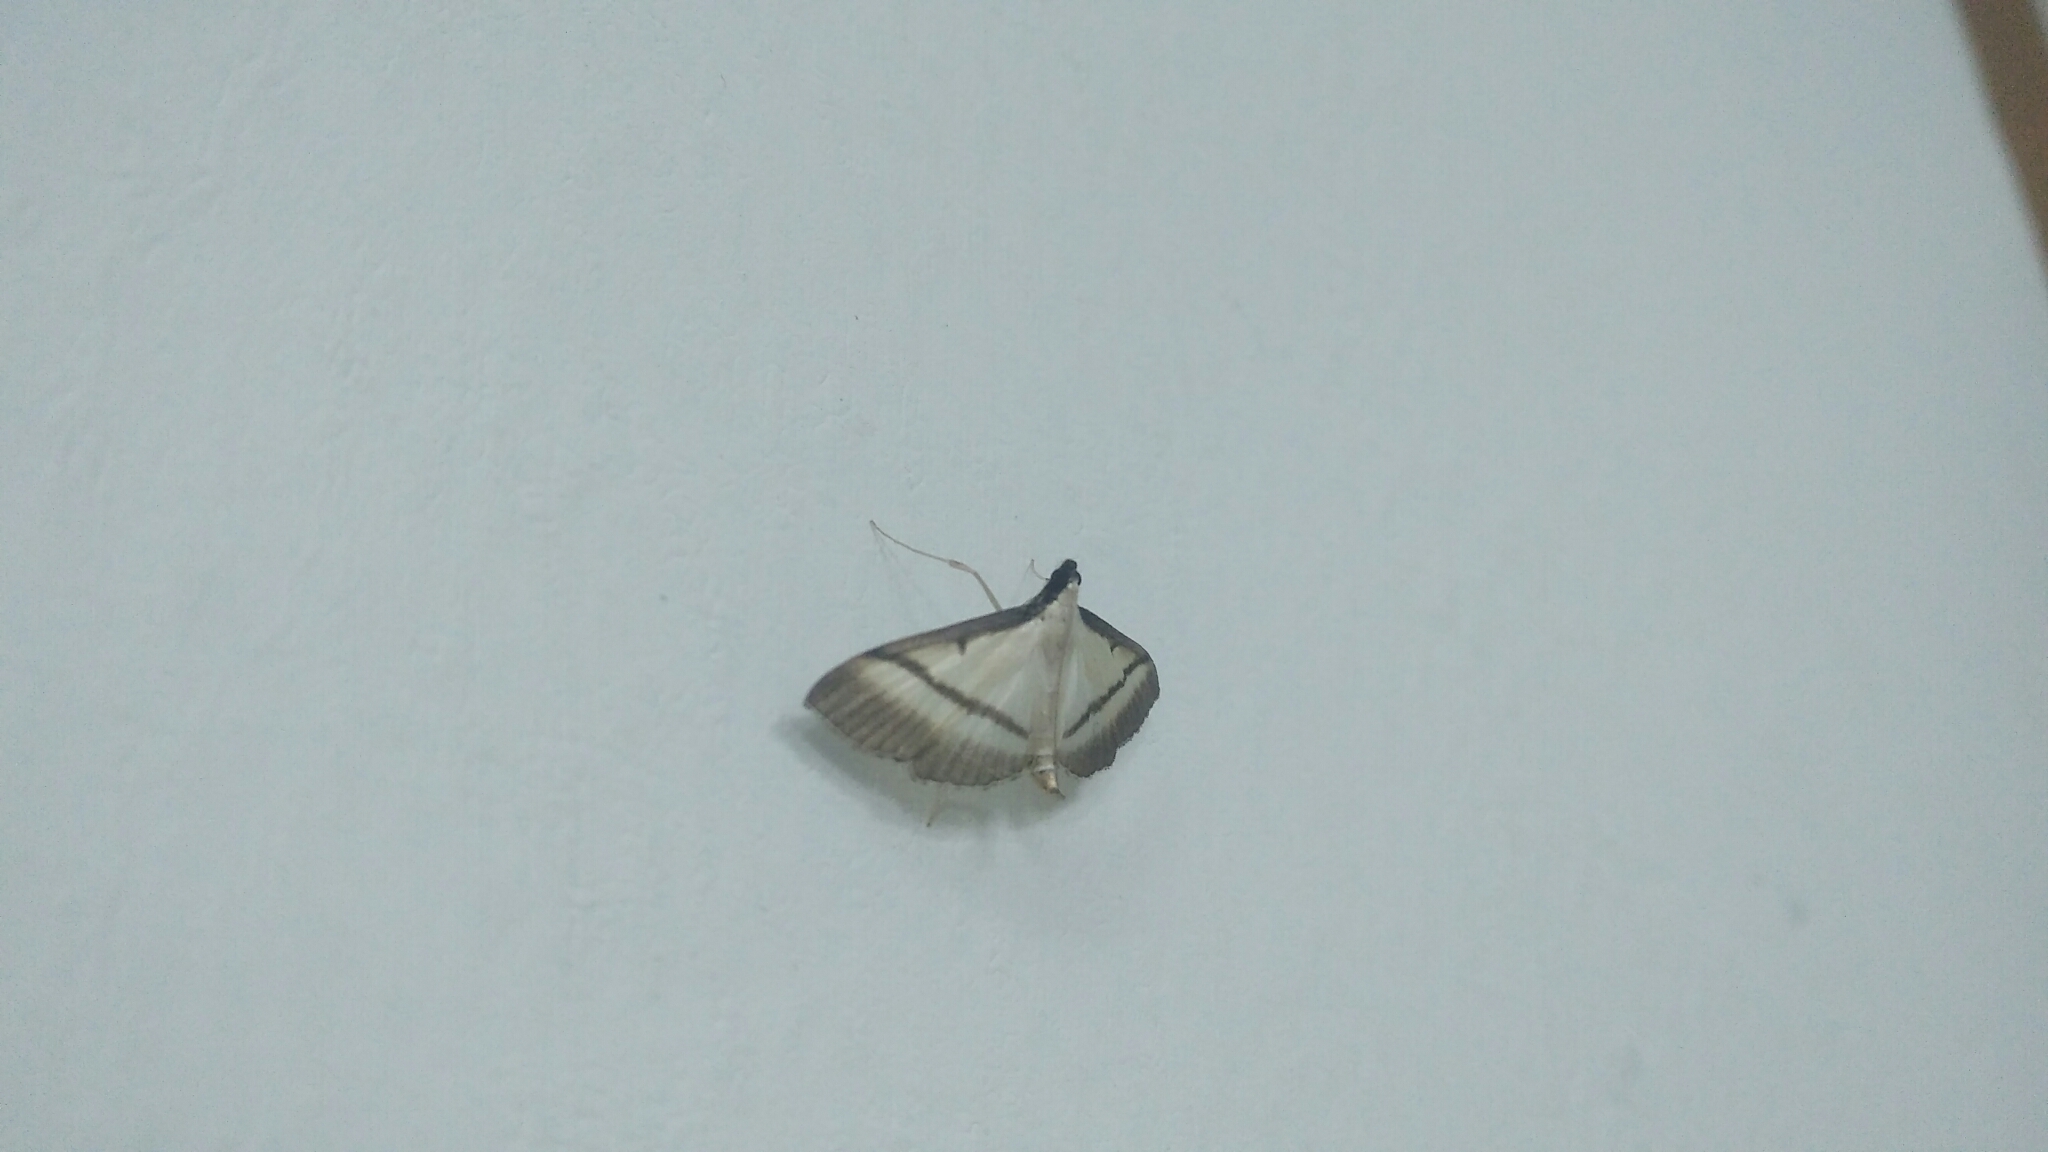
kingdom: Animalia
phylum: Arthropoda
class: Insecta
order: Lepidoptera
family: Crambidae
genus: Bradina
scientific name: Bradina diagonalis
